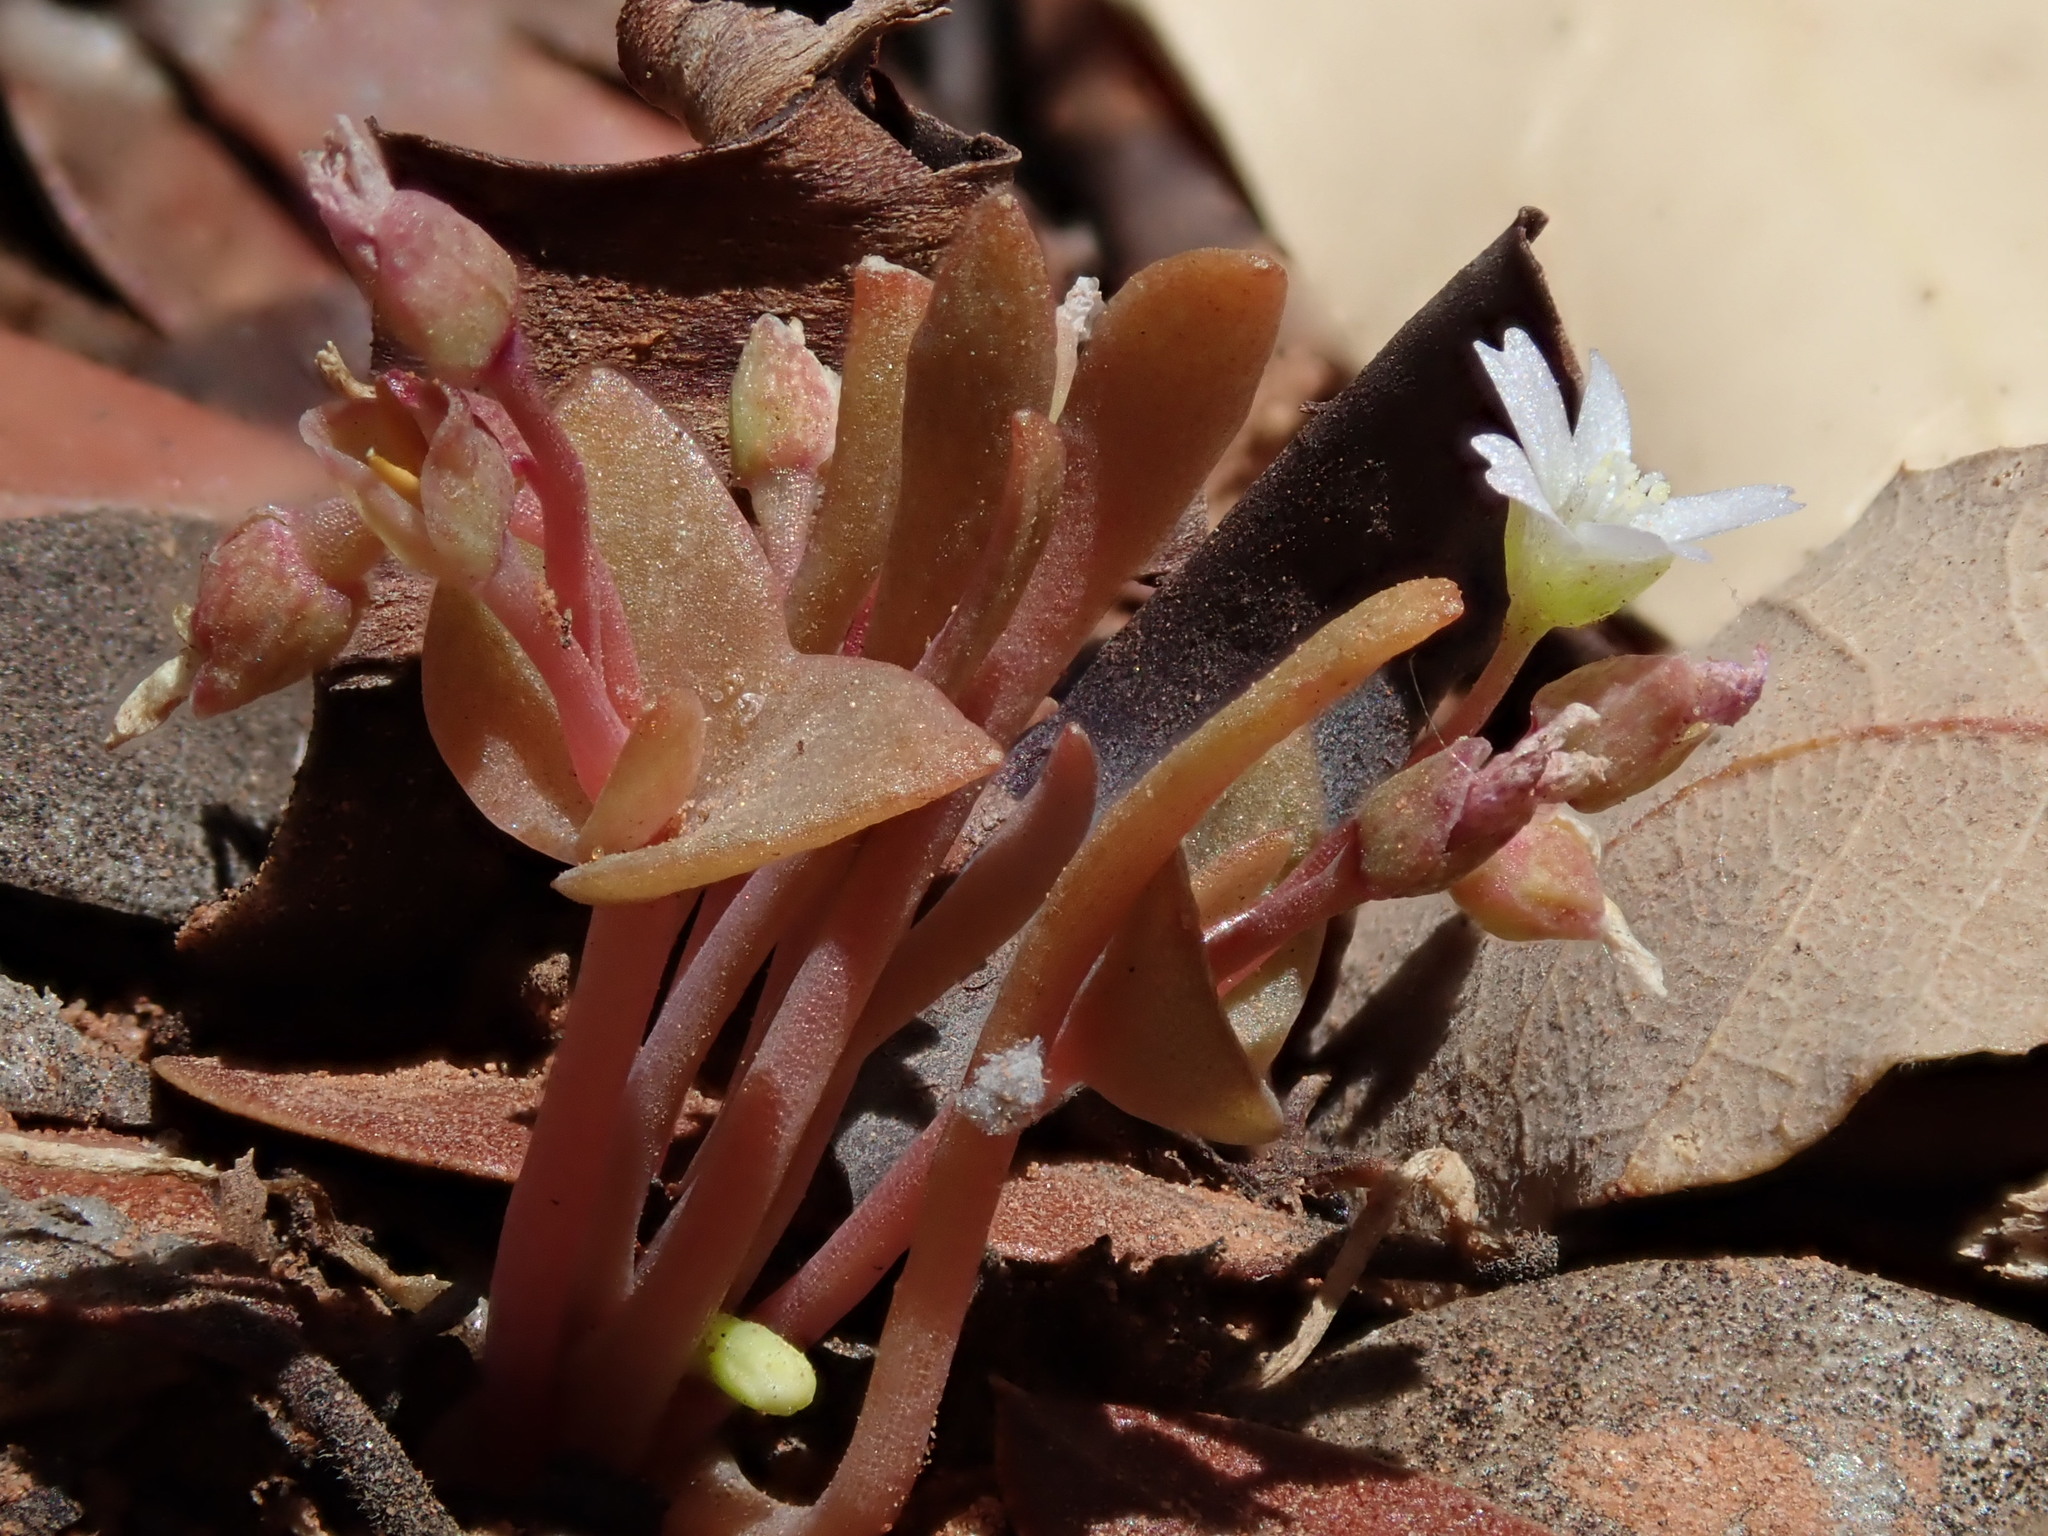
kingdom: Plantae
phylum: Tracheophyta
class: Magnoliopsida
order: Caryophyllales
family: Montiaceae
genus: Claytonia
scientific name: Claytonia parviflora
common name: Indian-lettuce
